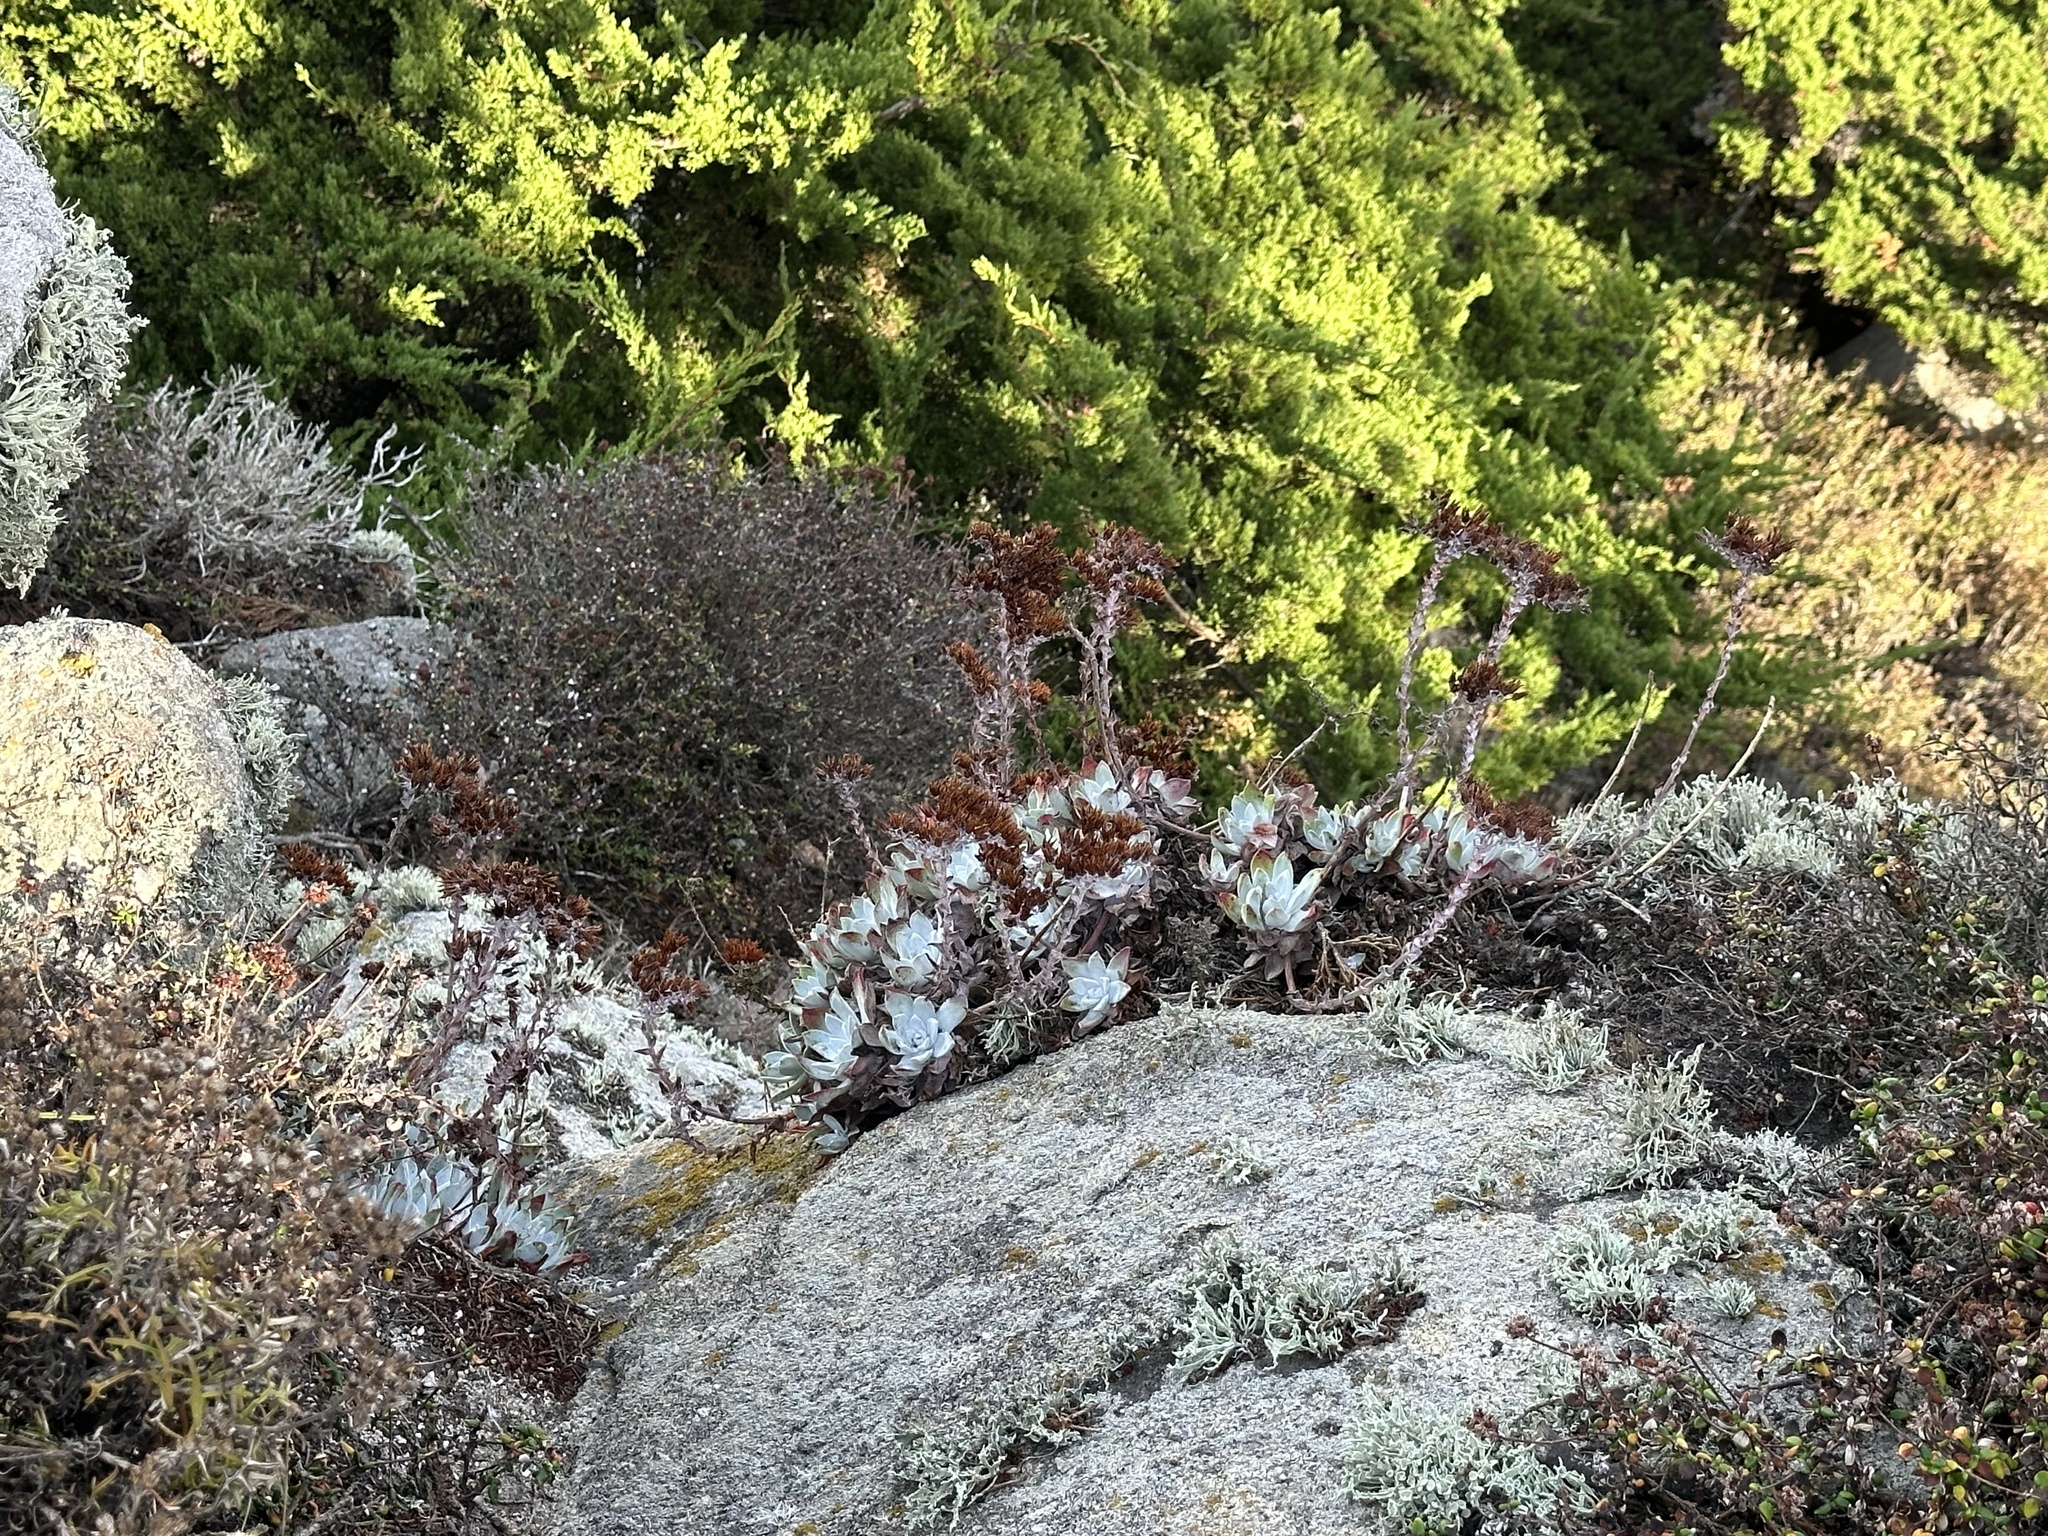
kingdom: Plantae
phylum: Tracheophyta
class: Magnoliopsida
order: Saxifragales
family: Crassulaceae
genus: Dudleya
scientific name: Dudleya farinosa
